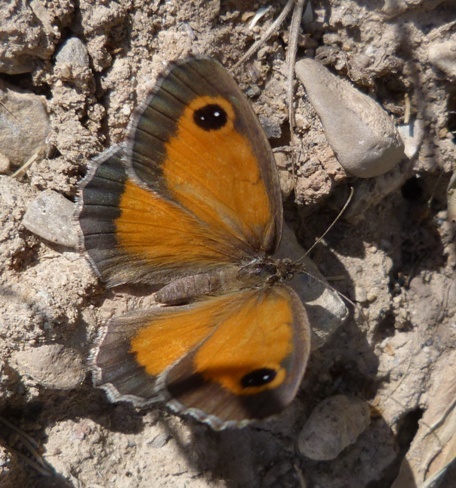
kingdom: Animalia
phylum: Arthropoda
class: Insecta
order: Lepidoptera
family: Nymphalidae
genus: Pyronia
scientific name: Pyronia cecilia
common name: Southern gatekeeper
